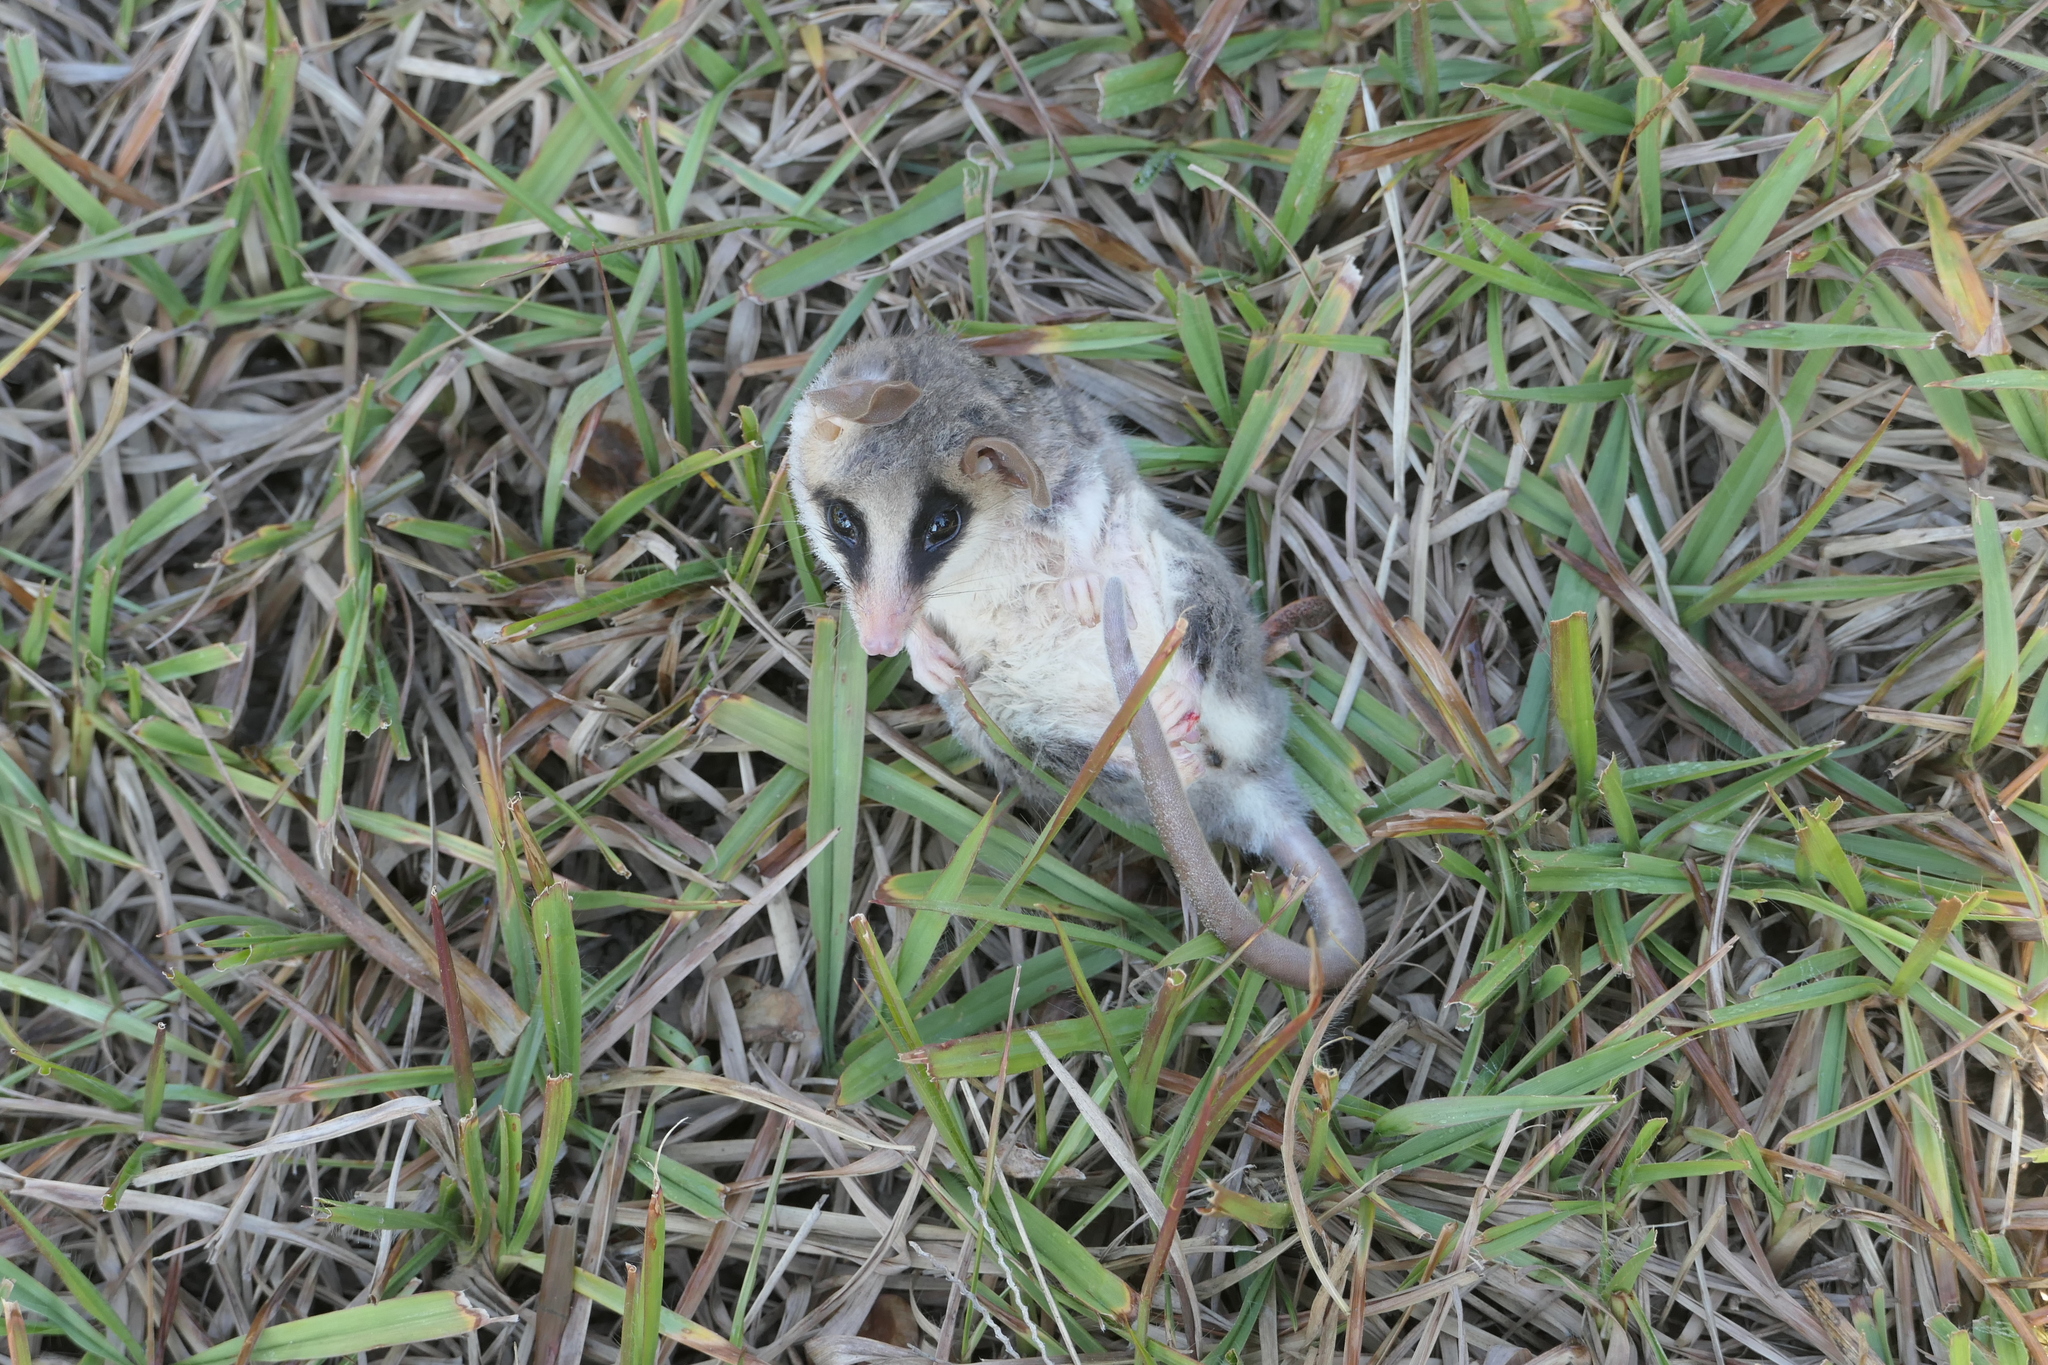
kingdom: Animalia
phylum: Chordata
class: Mammalia
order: Didelphimorphia
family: Didelphidae
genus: Tlacuatzin
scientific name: Tlacuatzin canescens
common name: Gray mouse opossum
